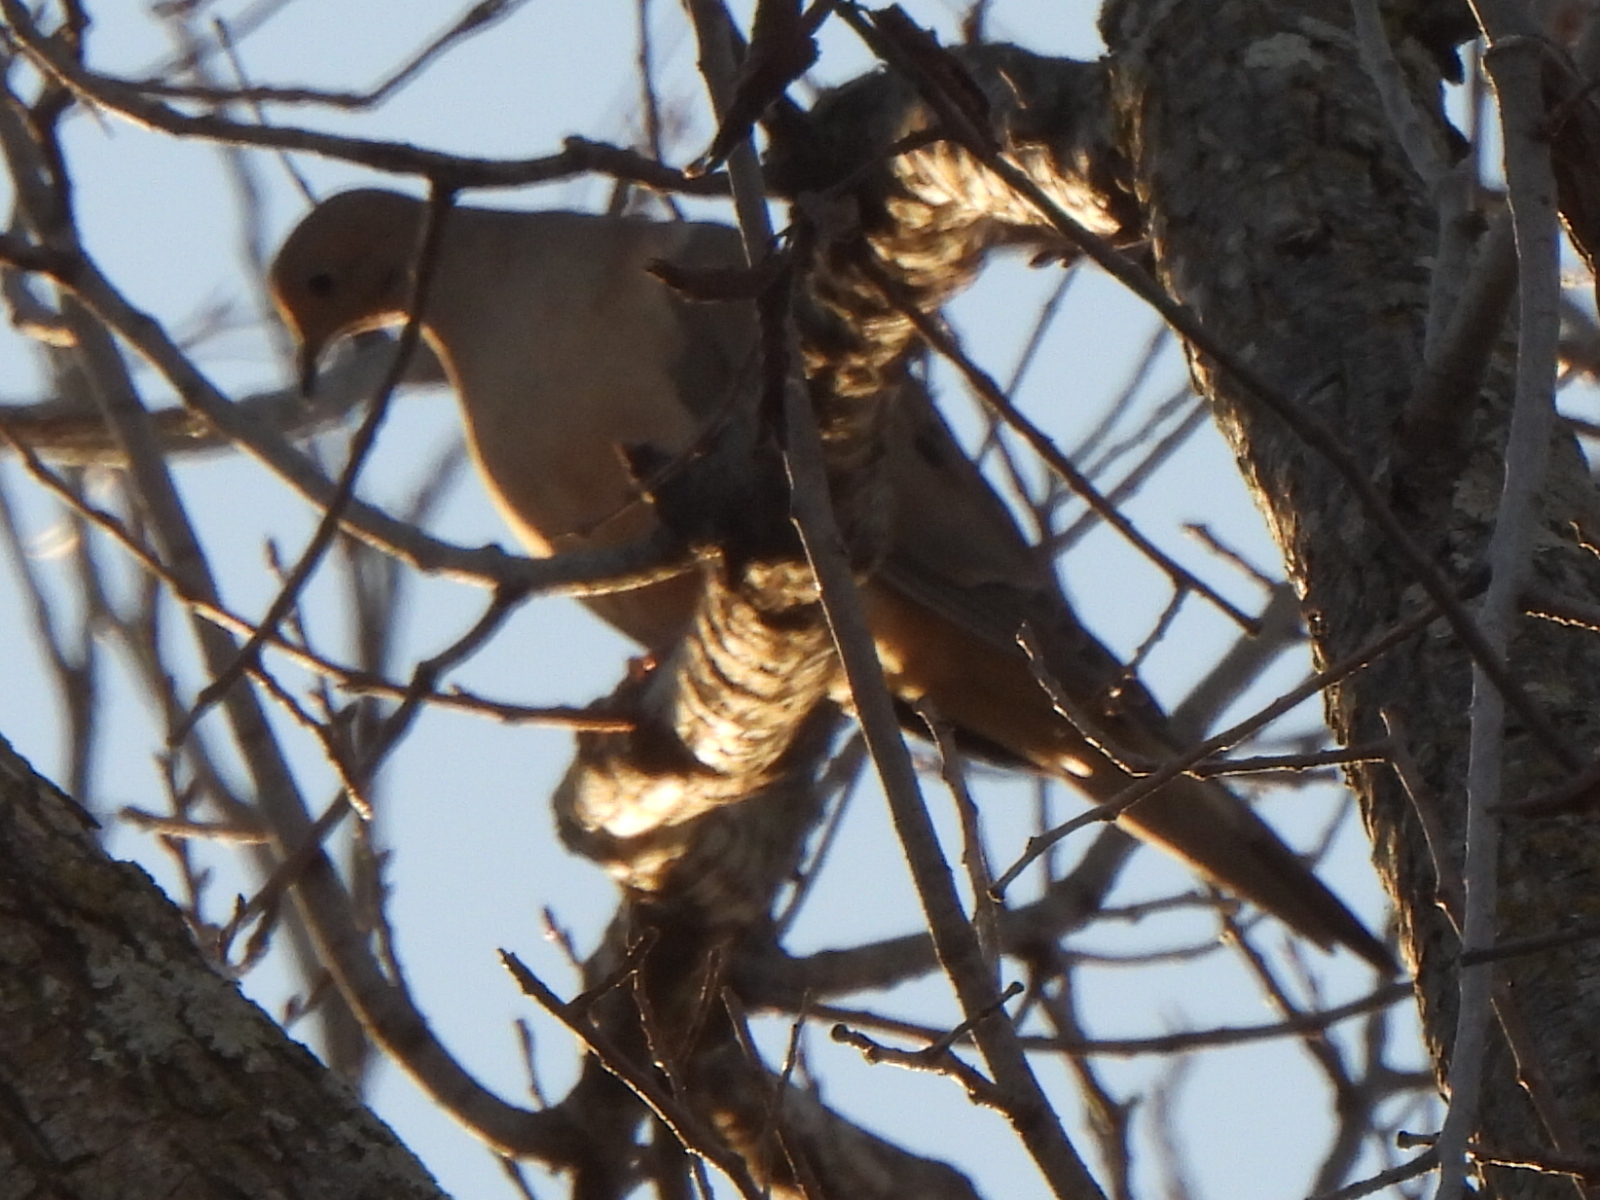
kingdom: Animalia
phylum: Chordata
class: Aves
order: Columbiformes
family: Columbidae
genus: Zenaida
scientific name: Zenaida macroura
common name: Mourning dove
